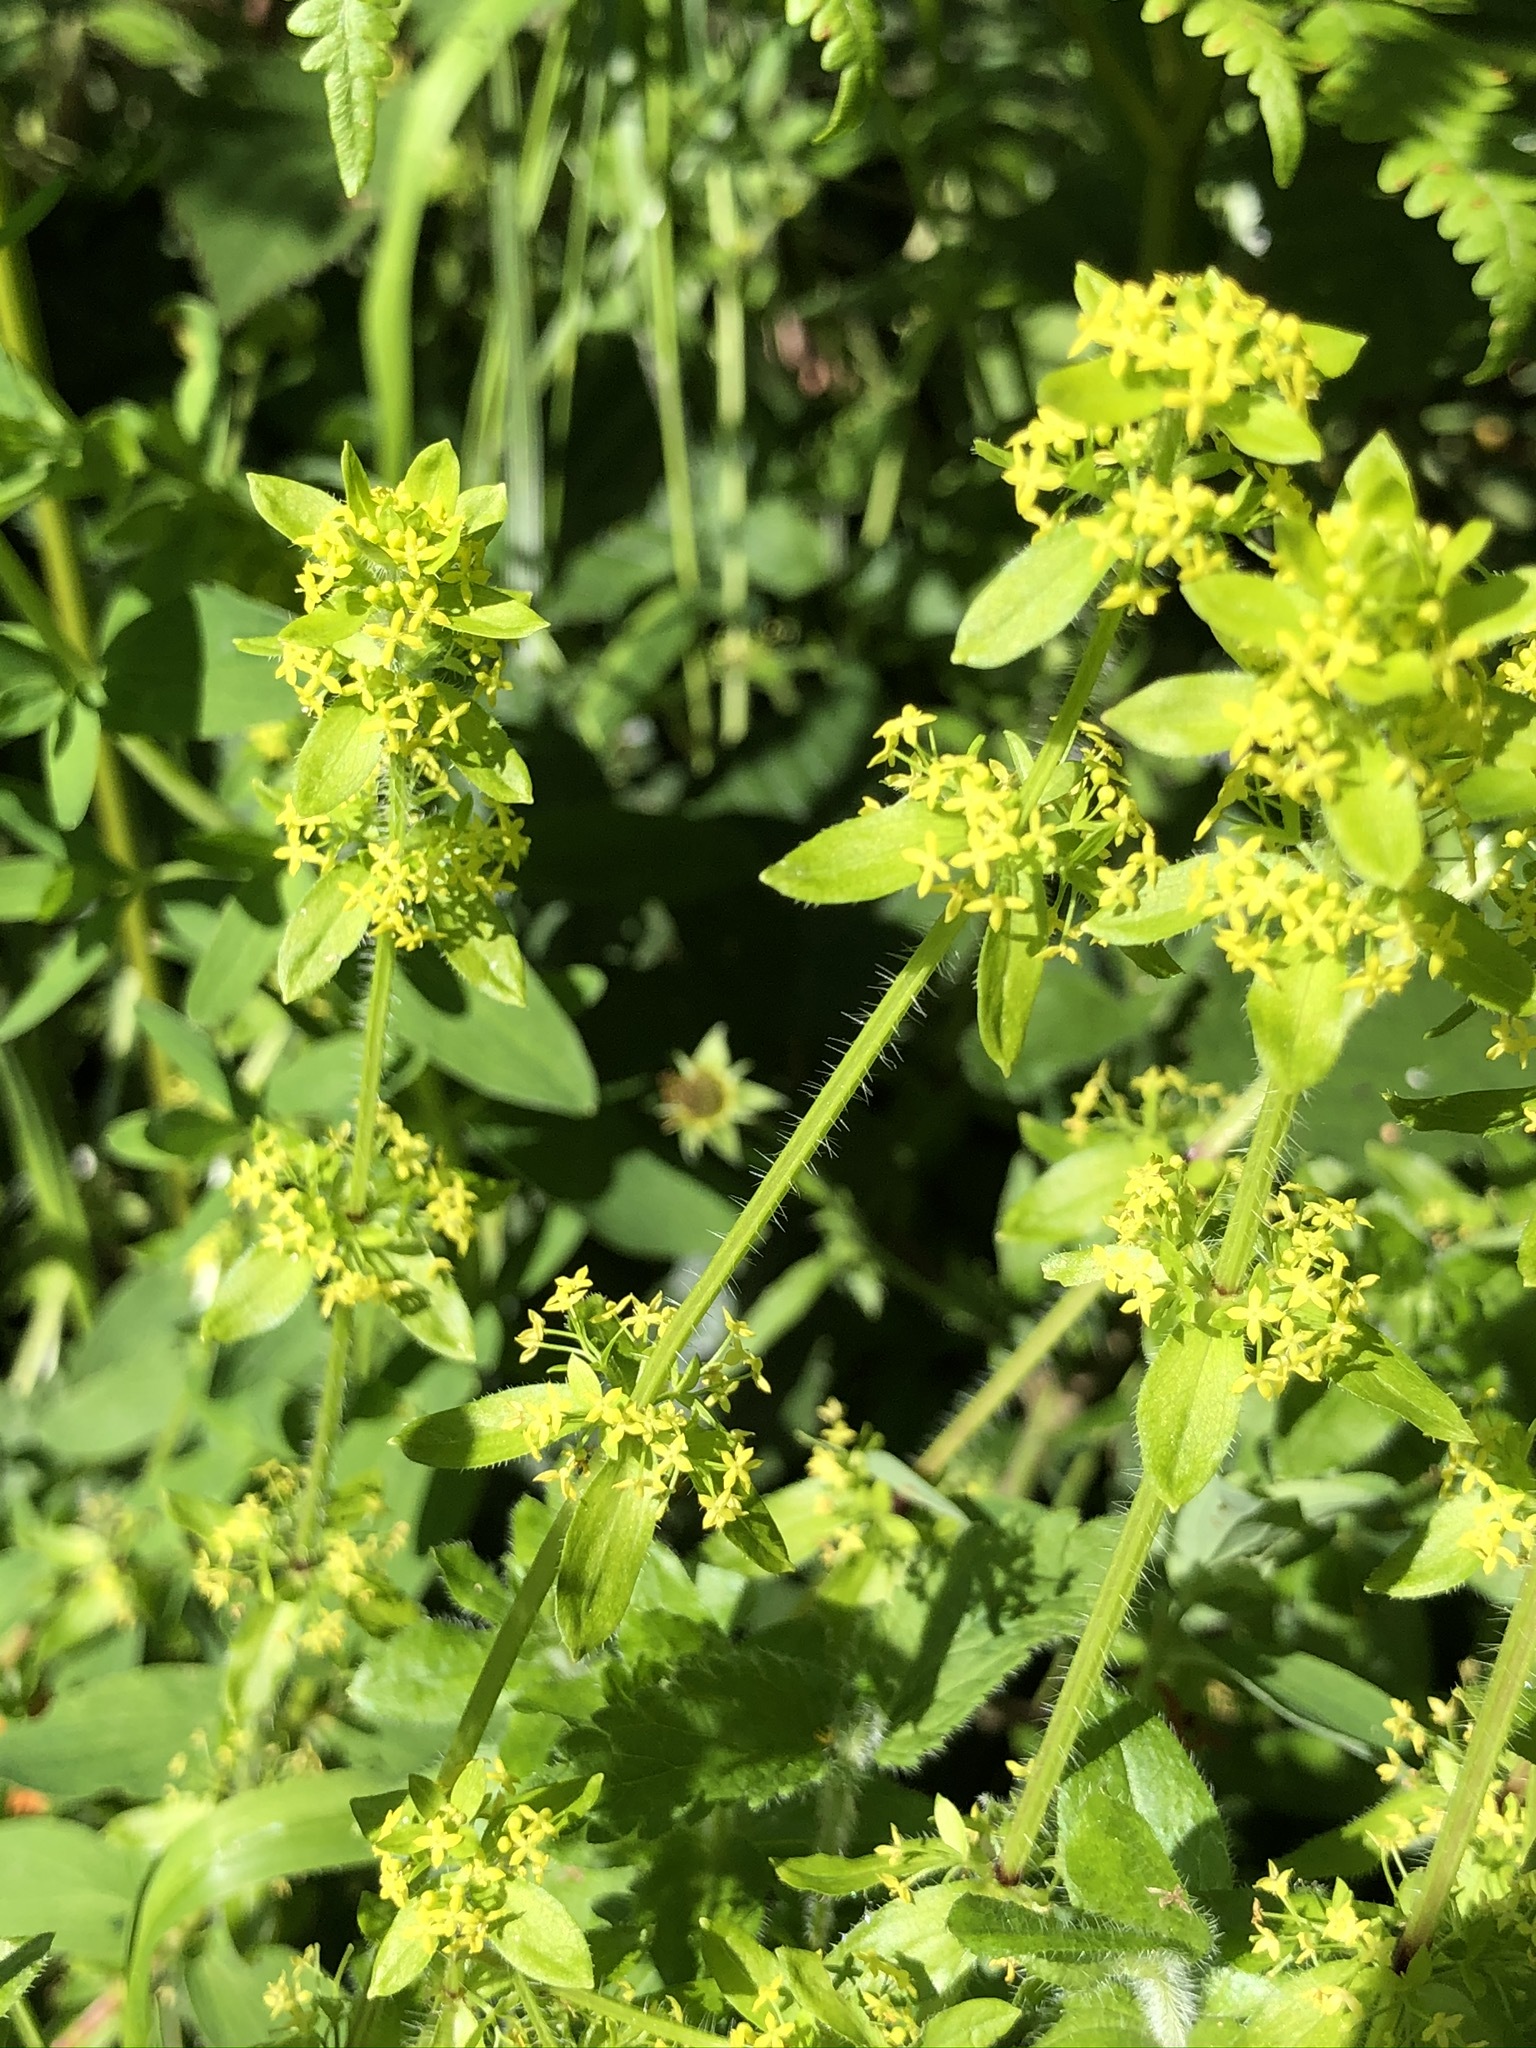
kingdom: Plantae
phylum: Tracheophyta
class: Magnoliopsida
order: Gentianales
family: Rubiaceae
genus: Cruciata
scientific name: Cruciata laevipes
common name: Crosswort
